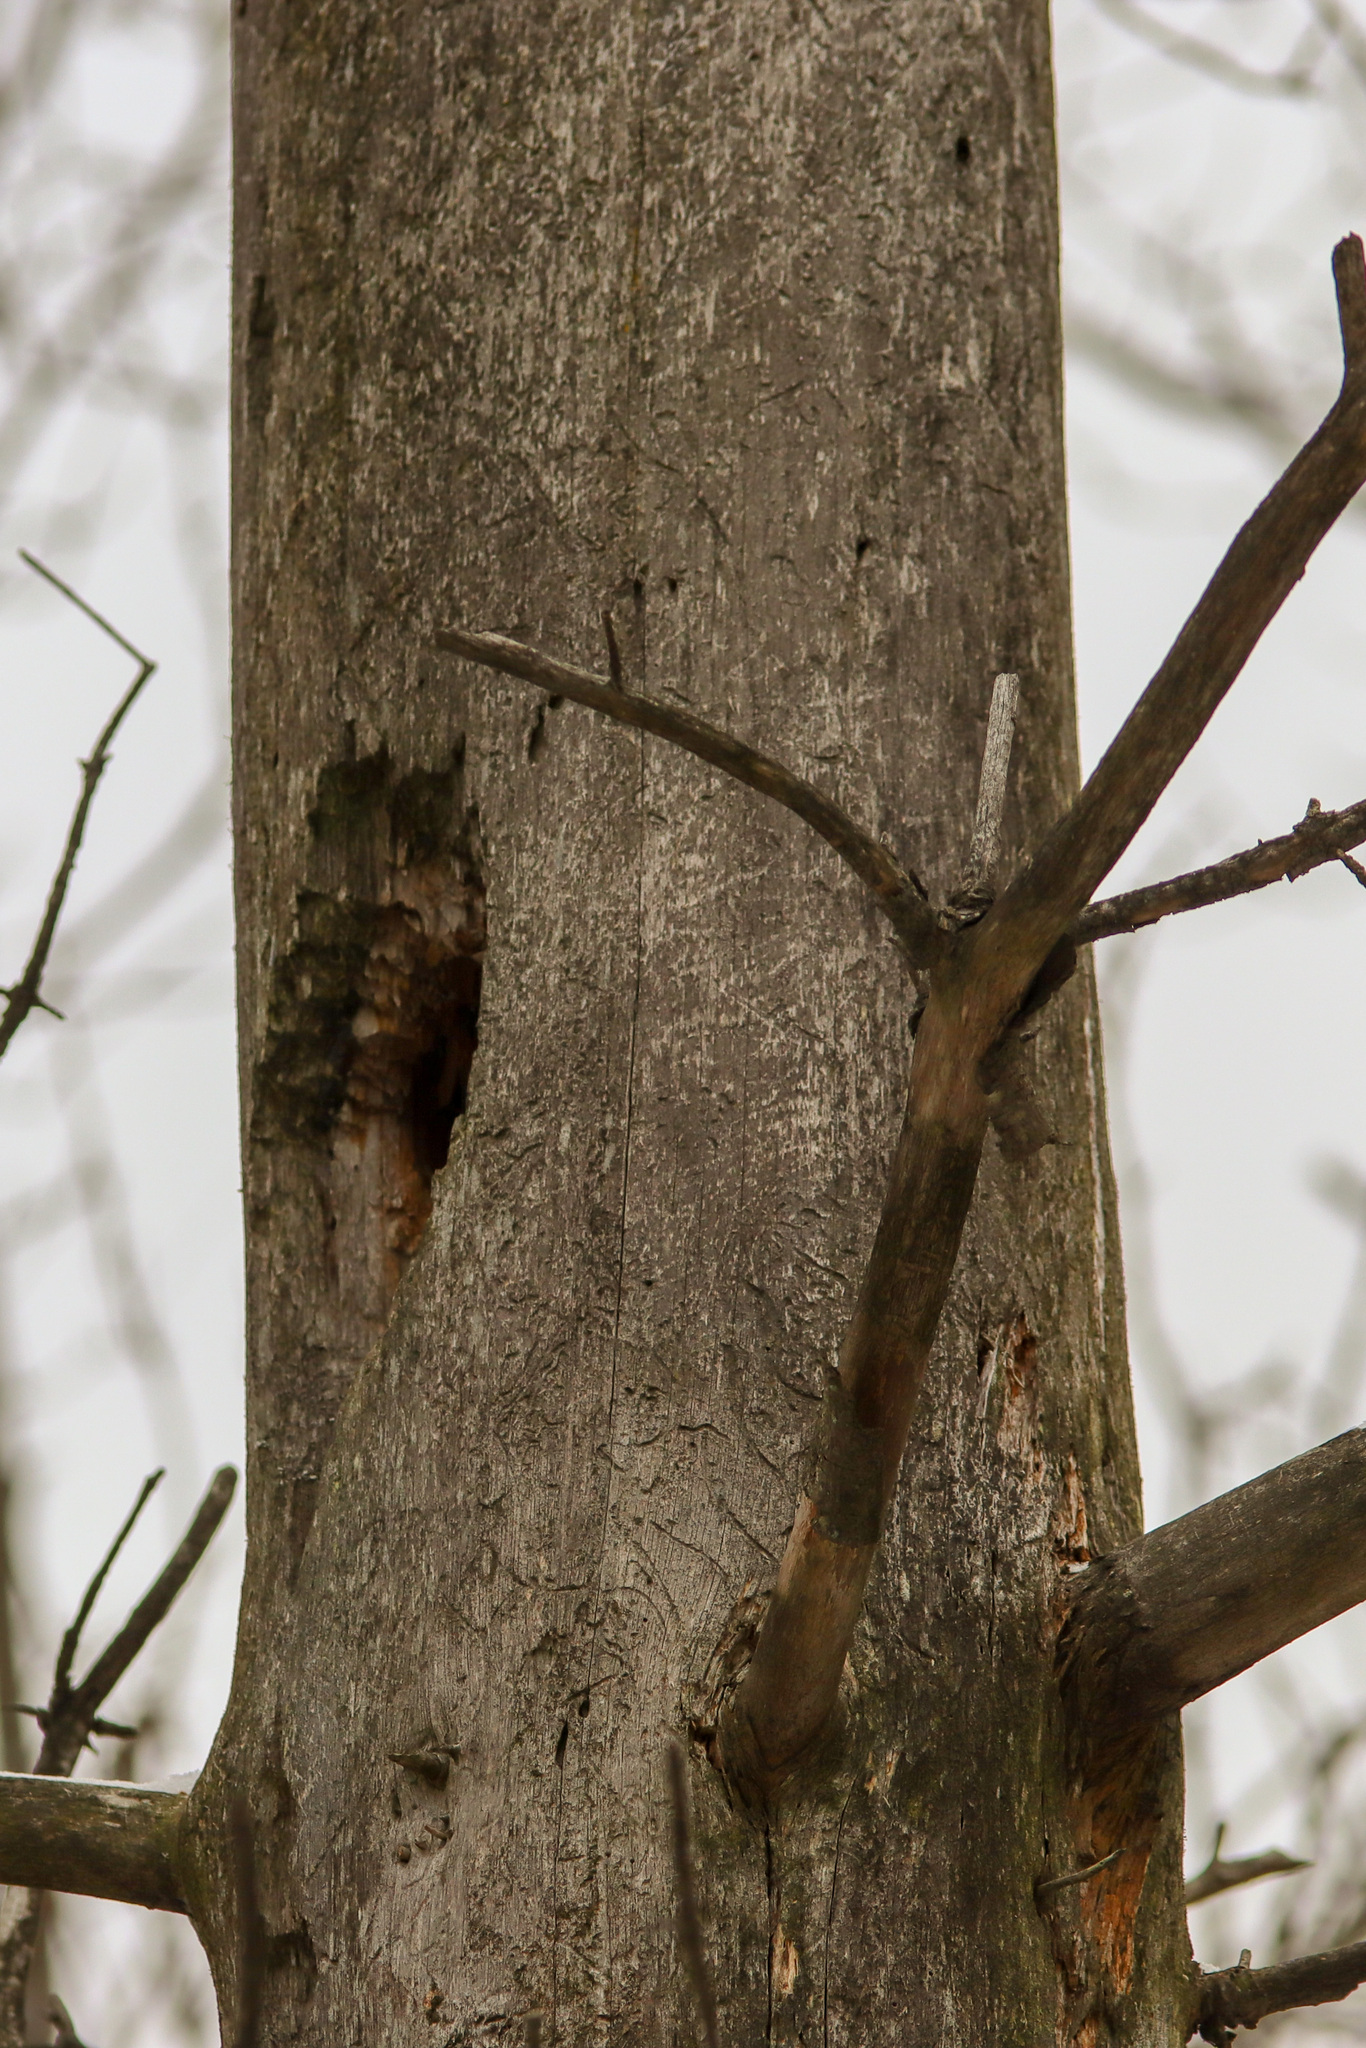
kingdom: Animalia
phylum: Chordata
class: Aves
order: Piciformes
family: Picidae
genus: Dryocopus
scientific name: Dryocopus pileatus
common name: Pileated woodpecker
